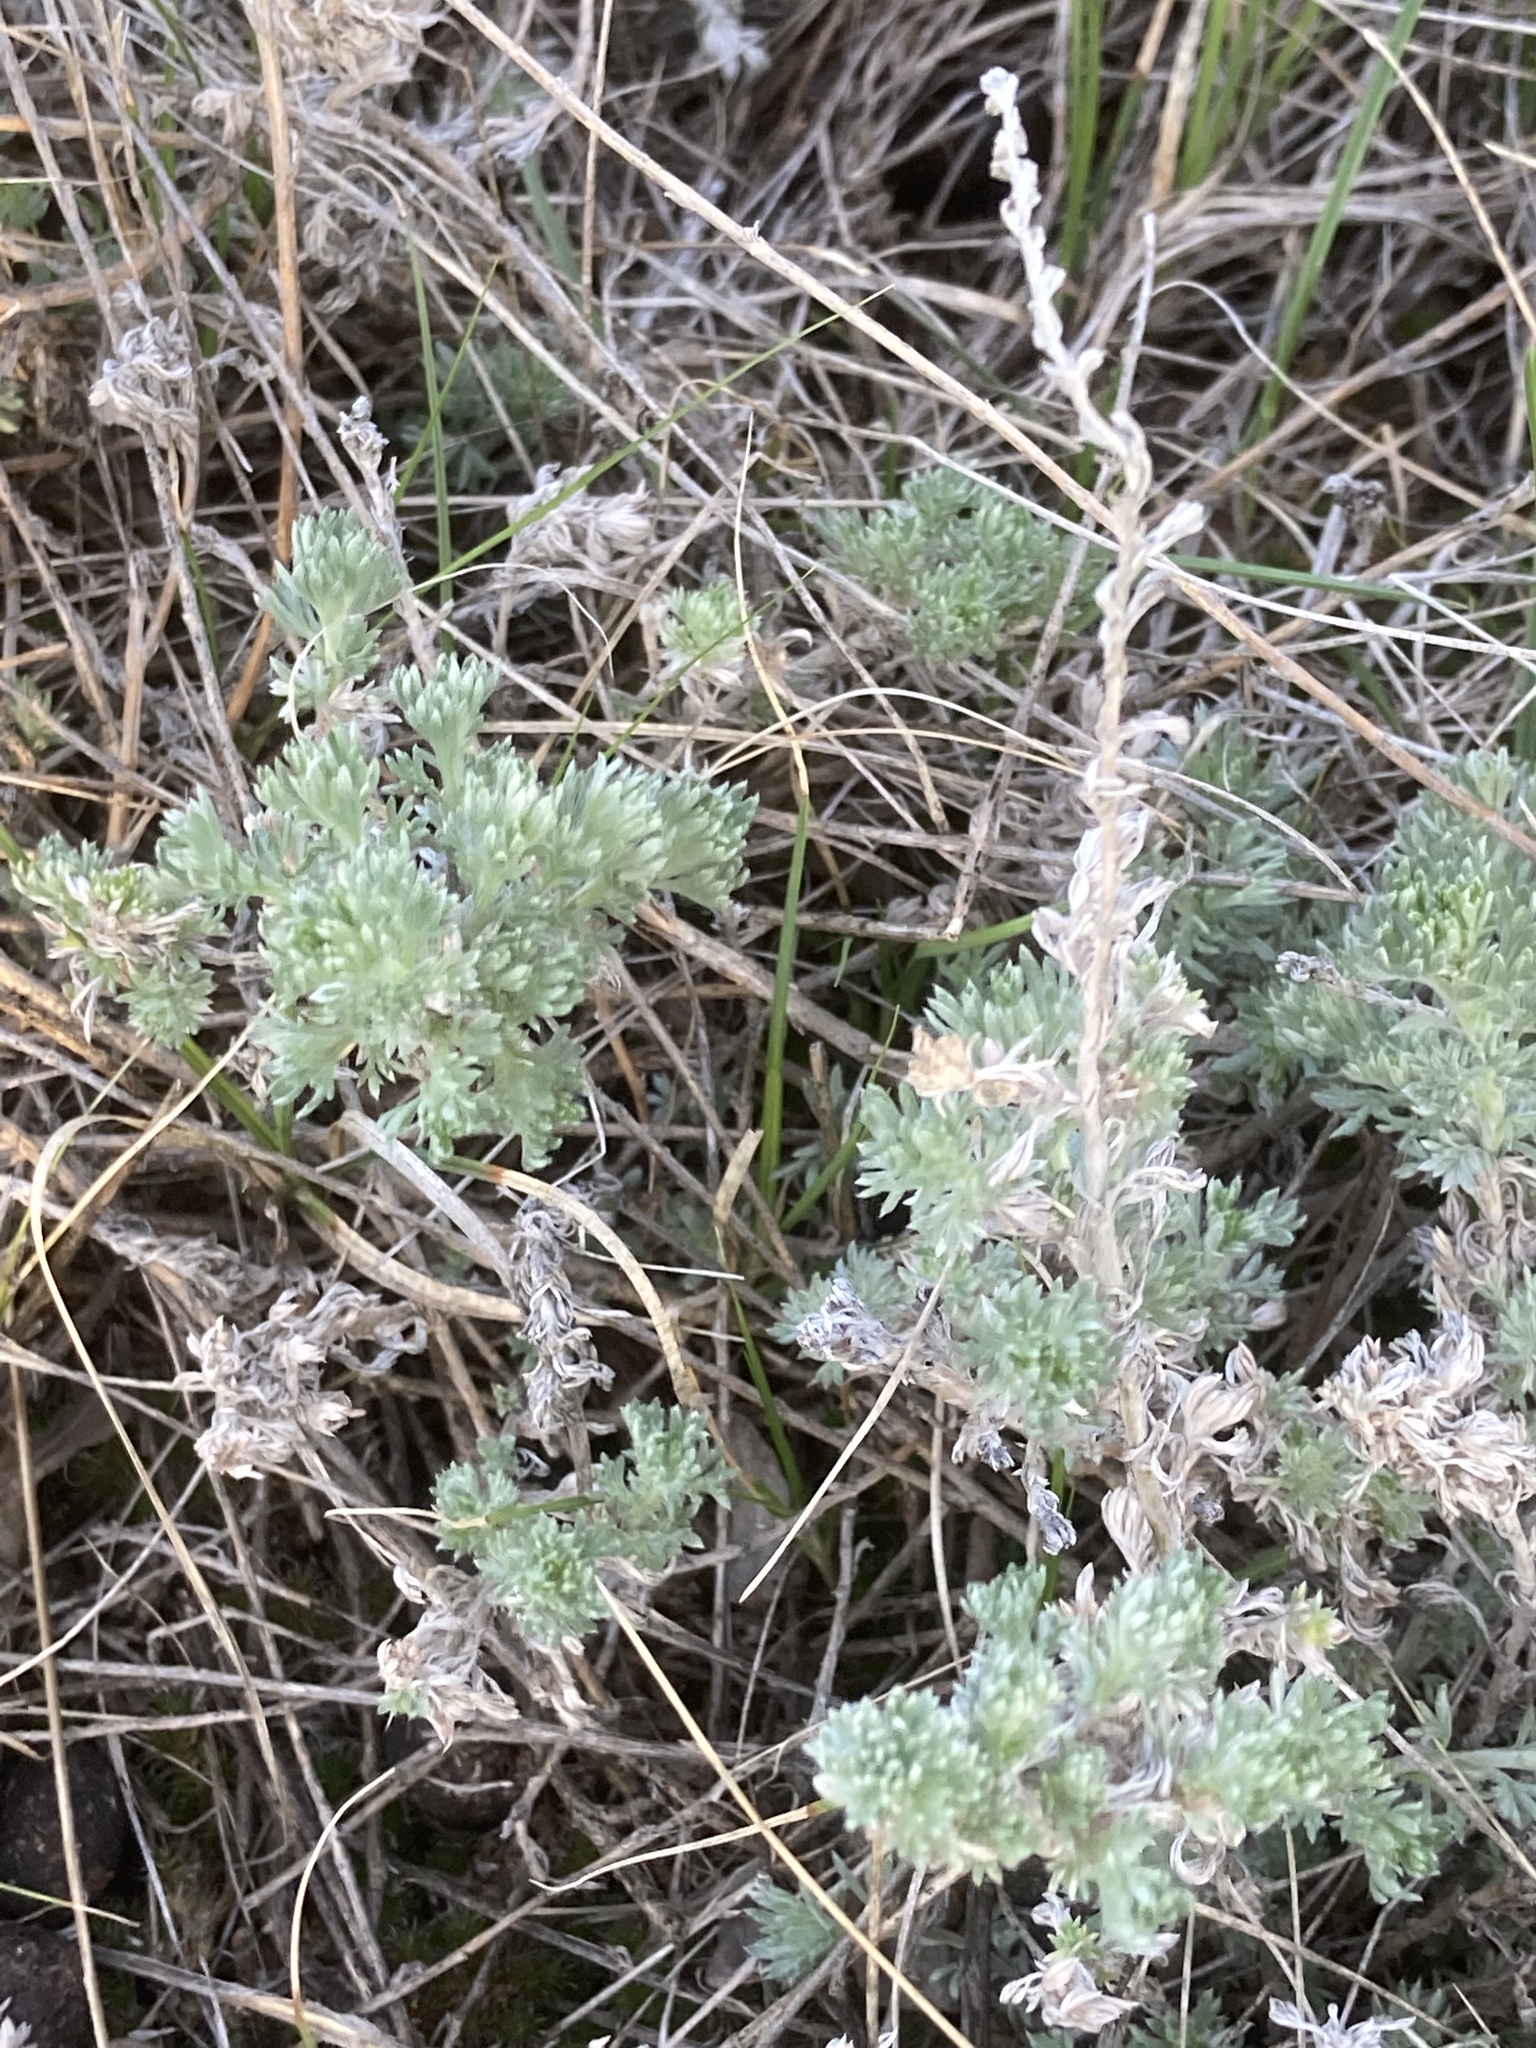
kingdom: Plantae
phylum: Tracheophyta
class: Magnoliopsida
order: Asterales
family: Asteraceae
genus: Artemisia
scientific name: Artemisia frigida
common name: Prairie sagewort
